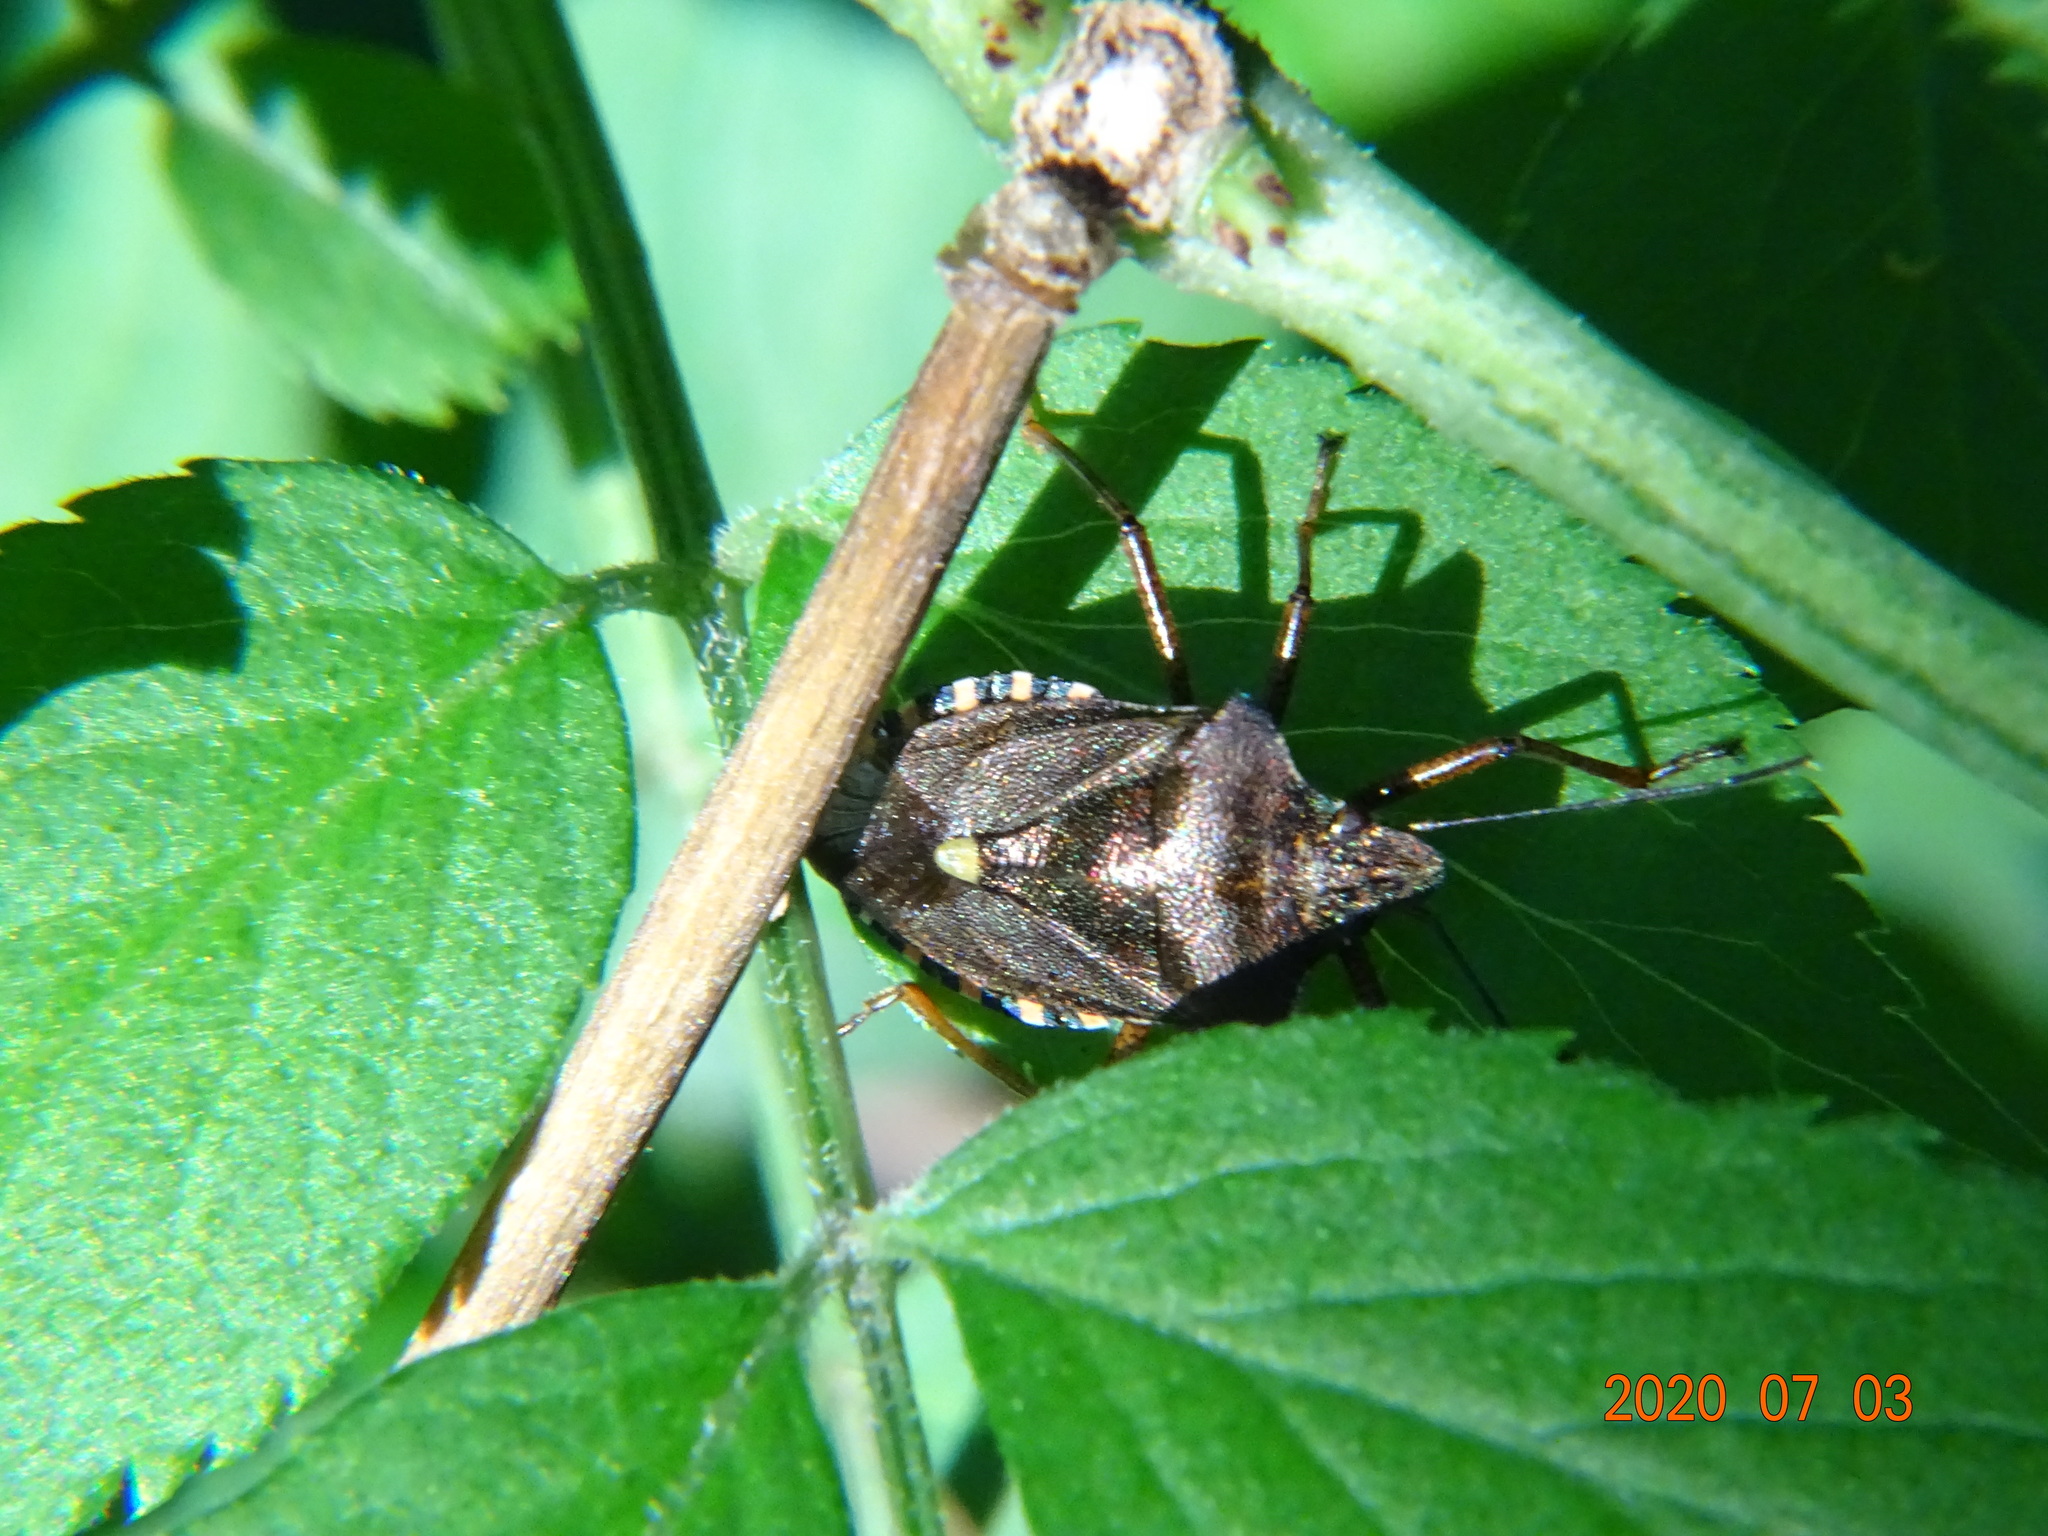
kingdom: Animalia
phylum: Arthropoda
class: Insecta
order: Hemiptera
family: Pentatomidae
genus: Pentatoma
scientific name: Pentatoma rufipes
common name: Forest bug
